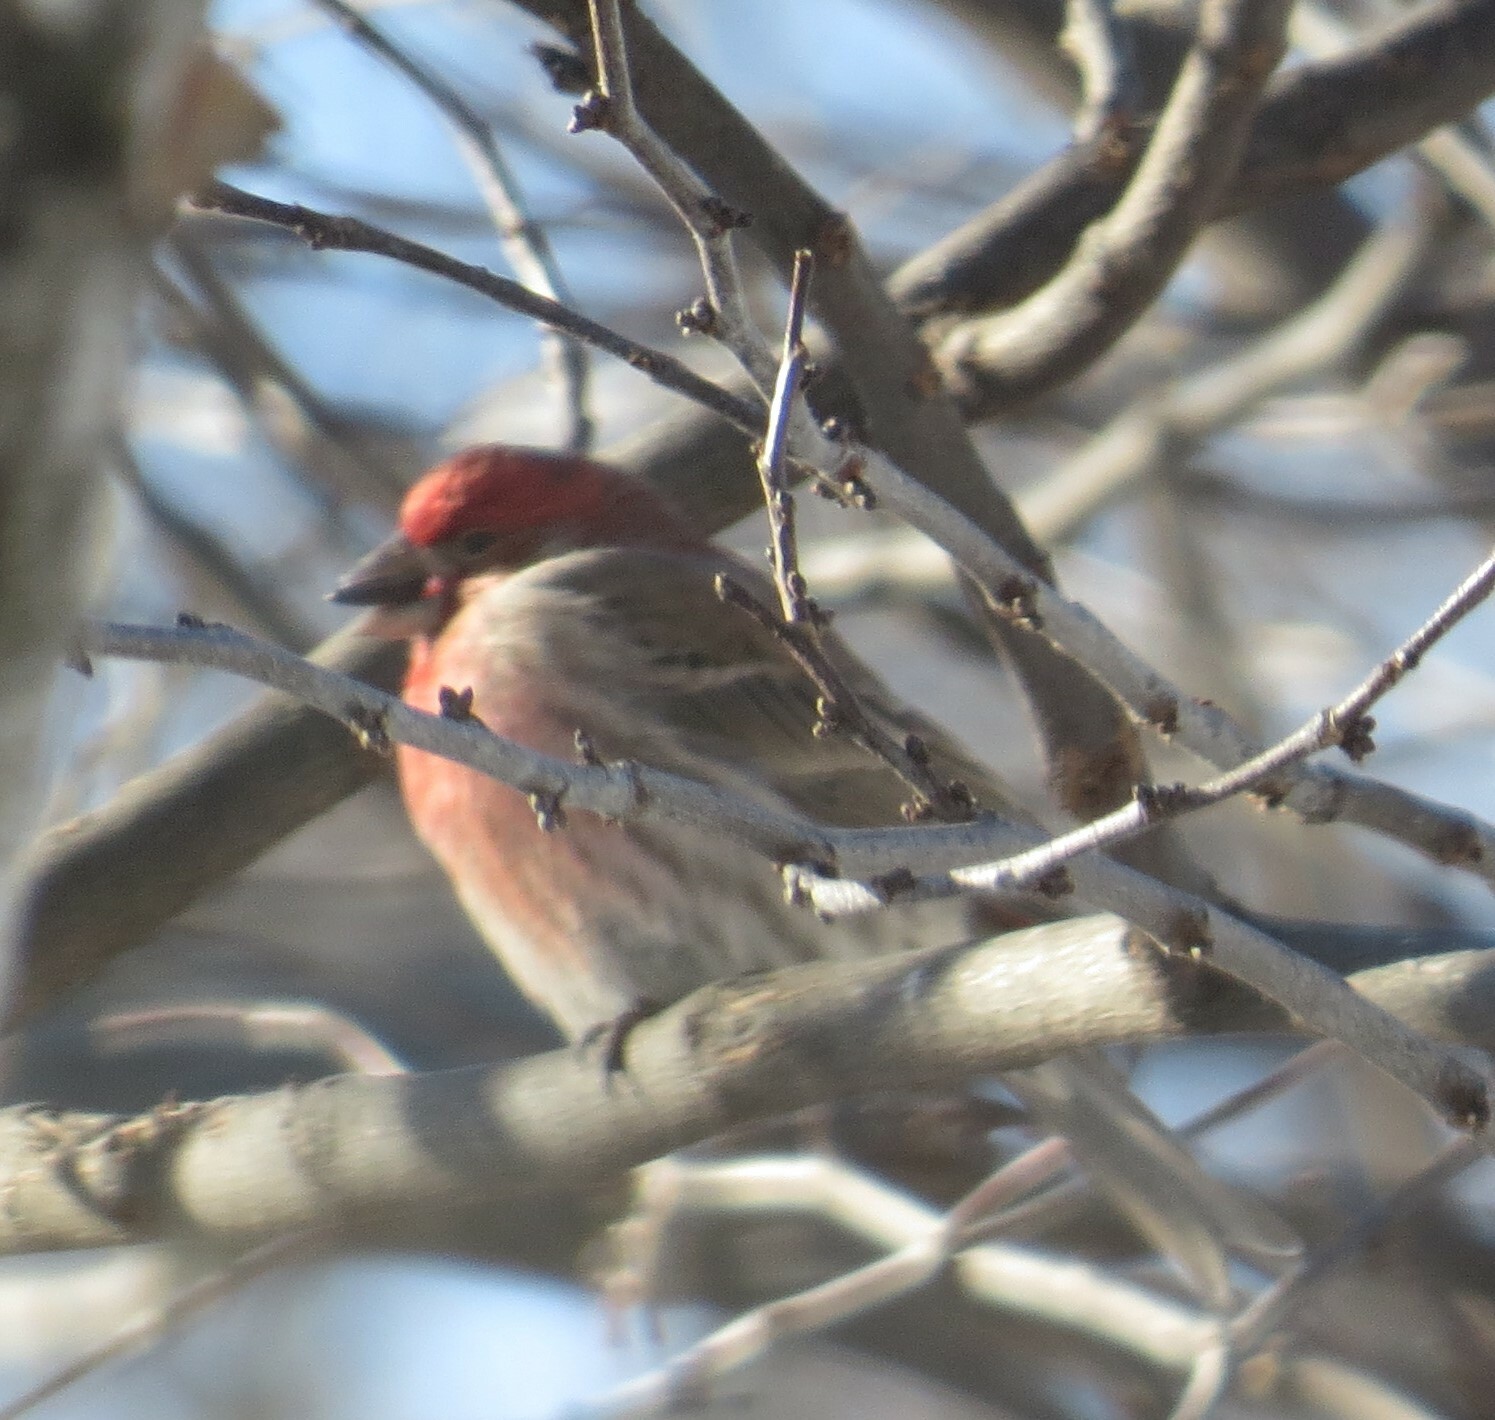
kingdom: Animalia
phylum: Chordata
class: Aves
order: Passeriformes
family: Fringillidae
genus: Haemorhous
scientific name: Haemorhous mexicanus
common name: House finch
